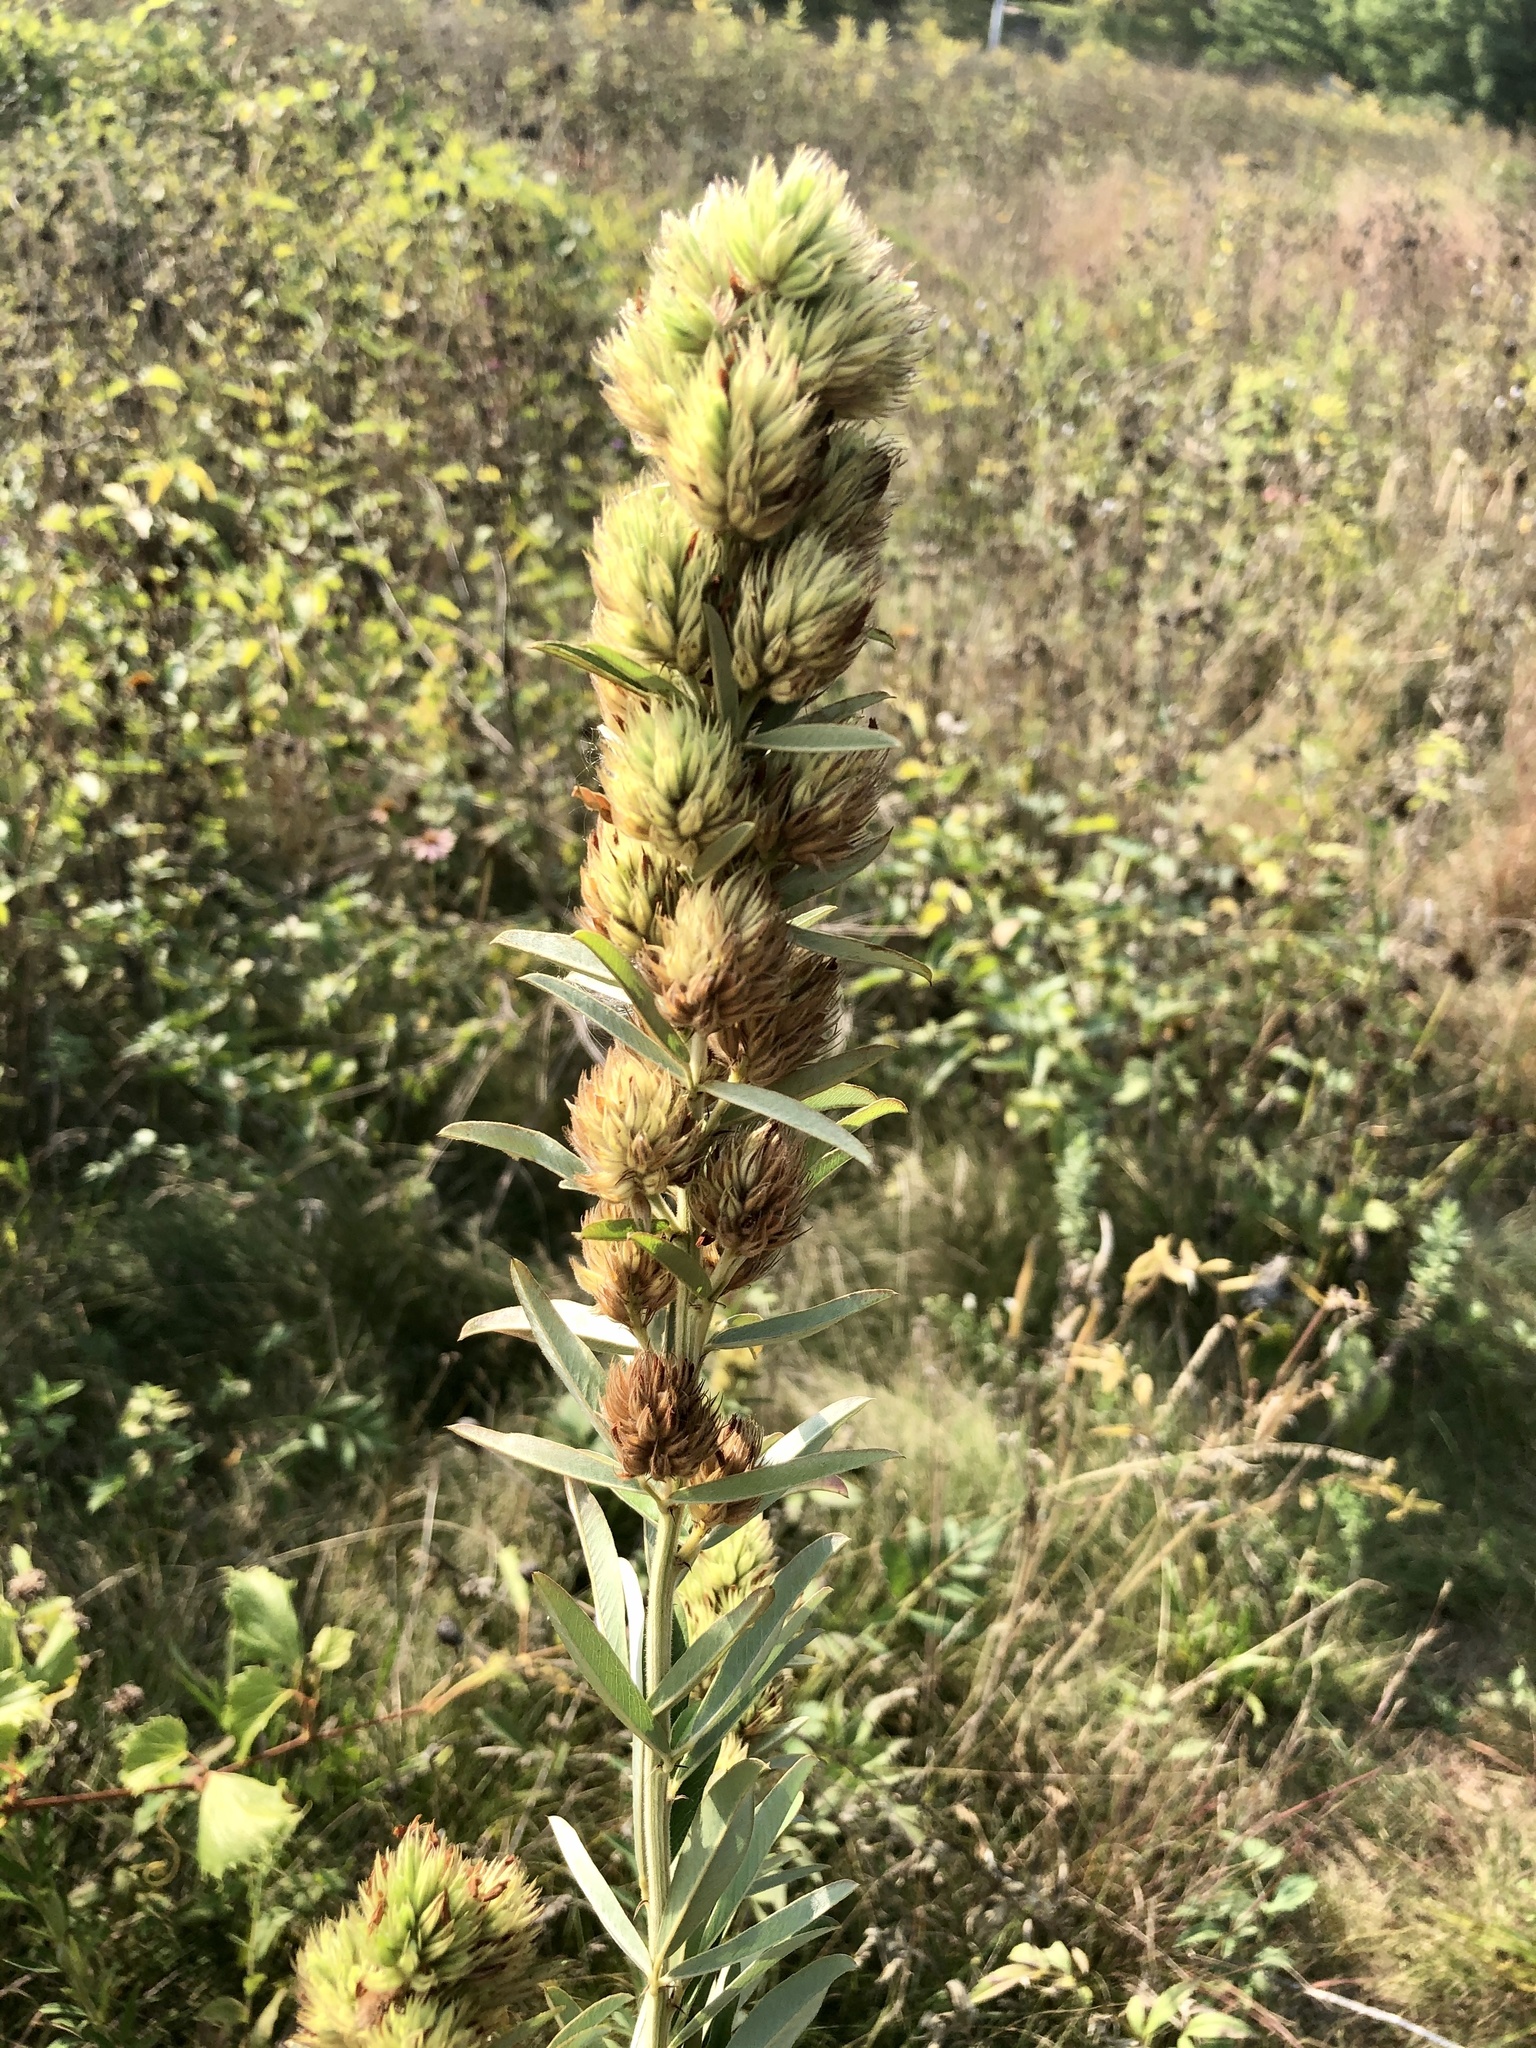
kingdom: Plantae
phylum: Tracheophyta
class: Magnoliopsida
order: Fabales
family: Fabaceae
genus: Lespedeza
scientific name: Lespedeza capitata
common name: Dusty clover
